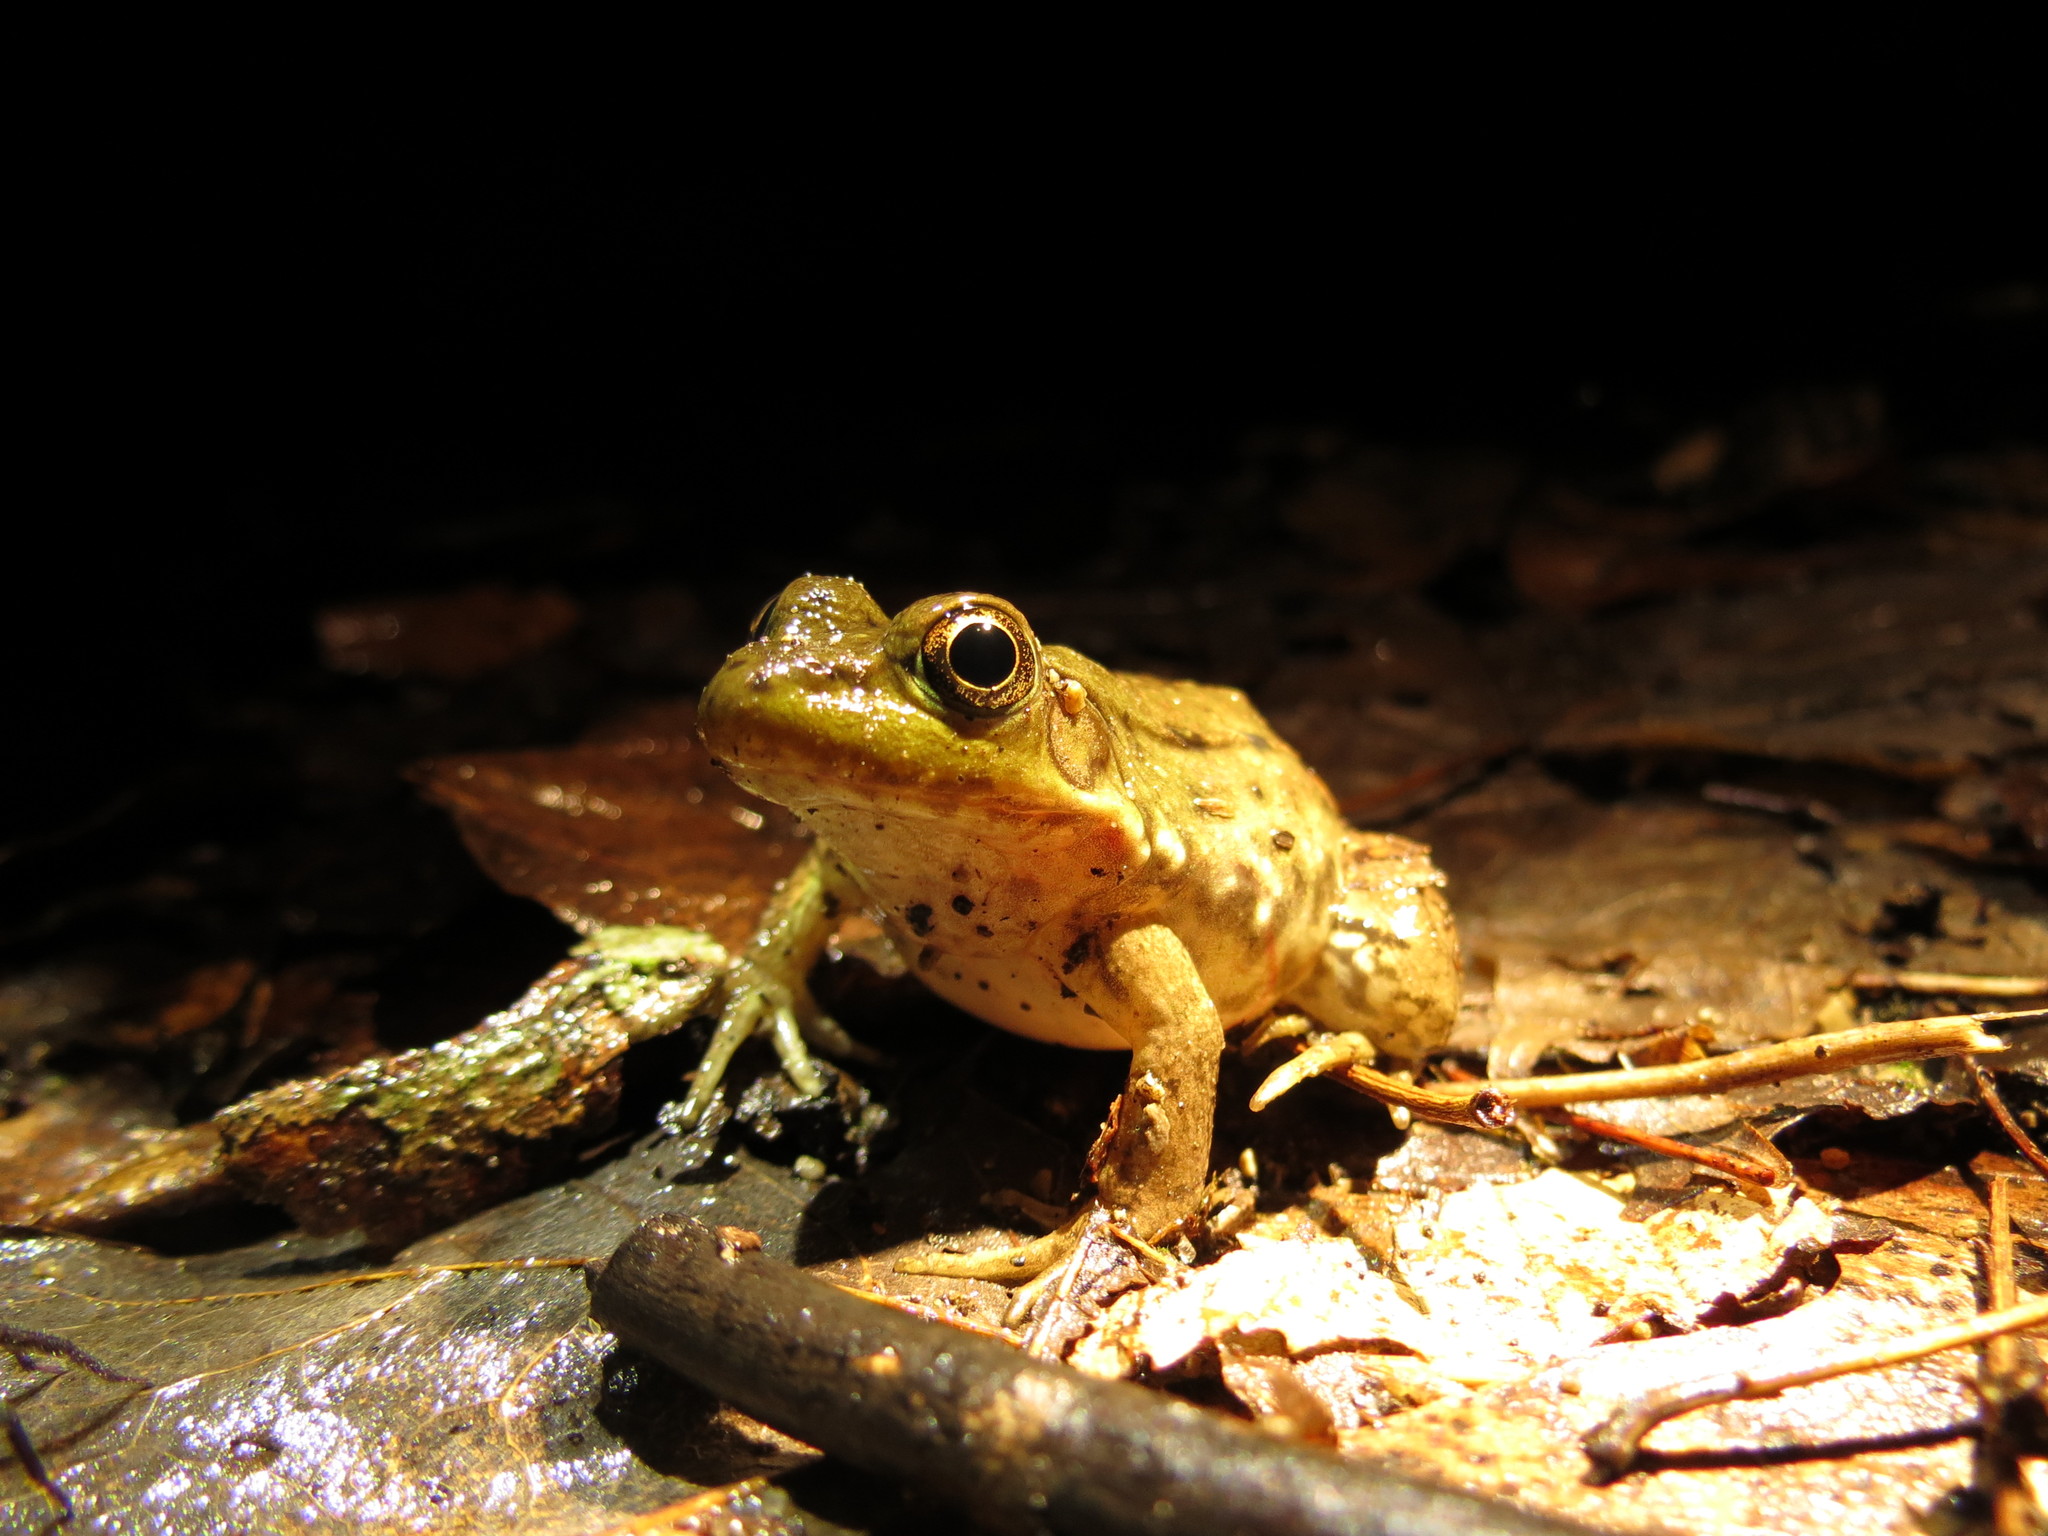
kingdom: Animalia
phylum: Chordata
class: Amphibia
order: Anura
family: Ranidae
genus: Lithobates
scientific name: Lithobates clamitans
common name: Green frog
